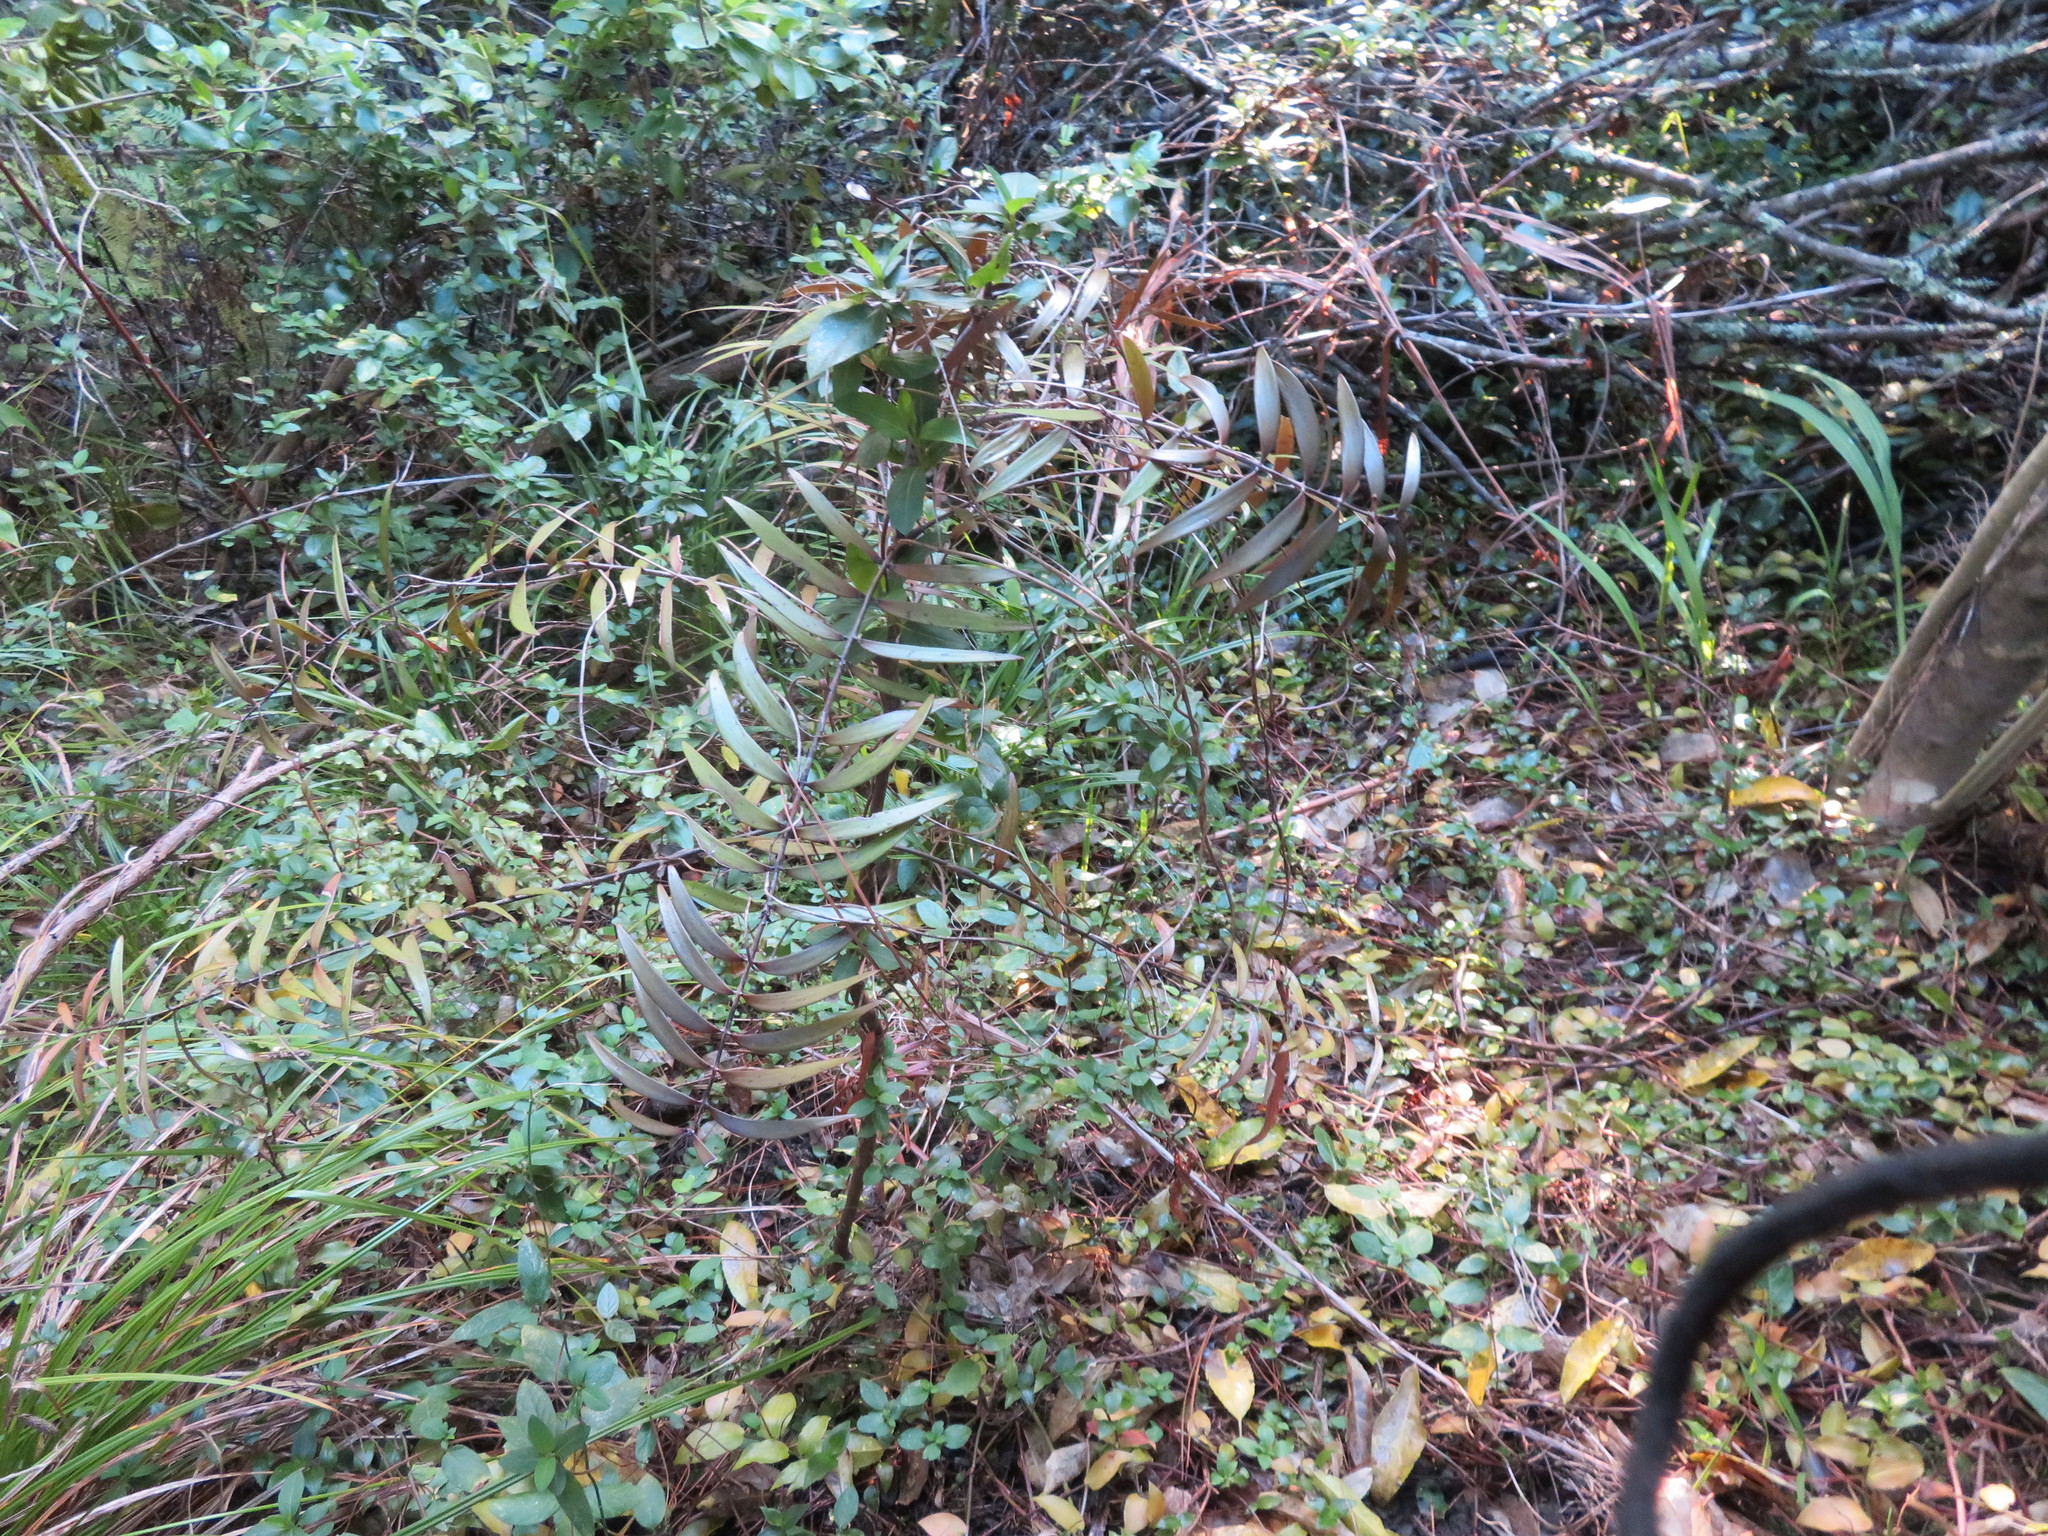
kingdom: Plantae
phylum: Tracheophyta
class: Pinopsida
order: Pinales
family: Araucariaceae
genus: Agathis
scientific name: Agathis australis
